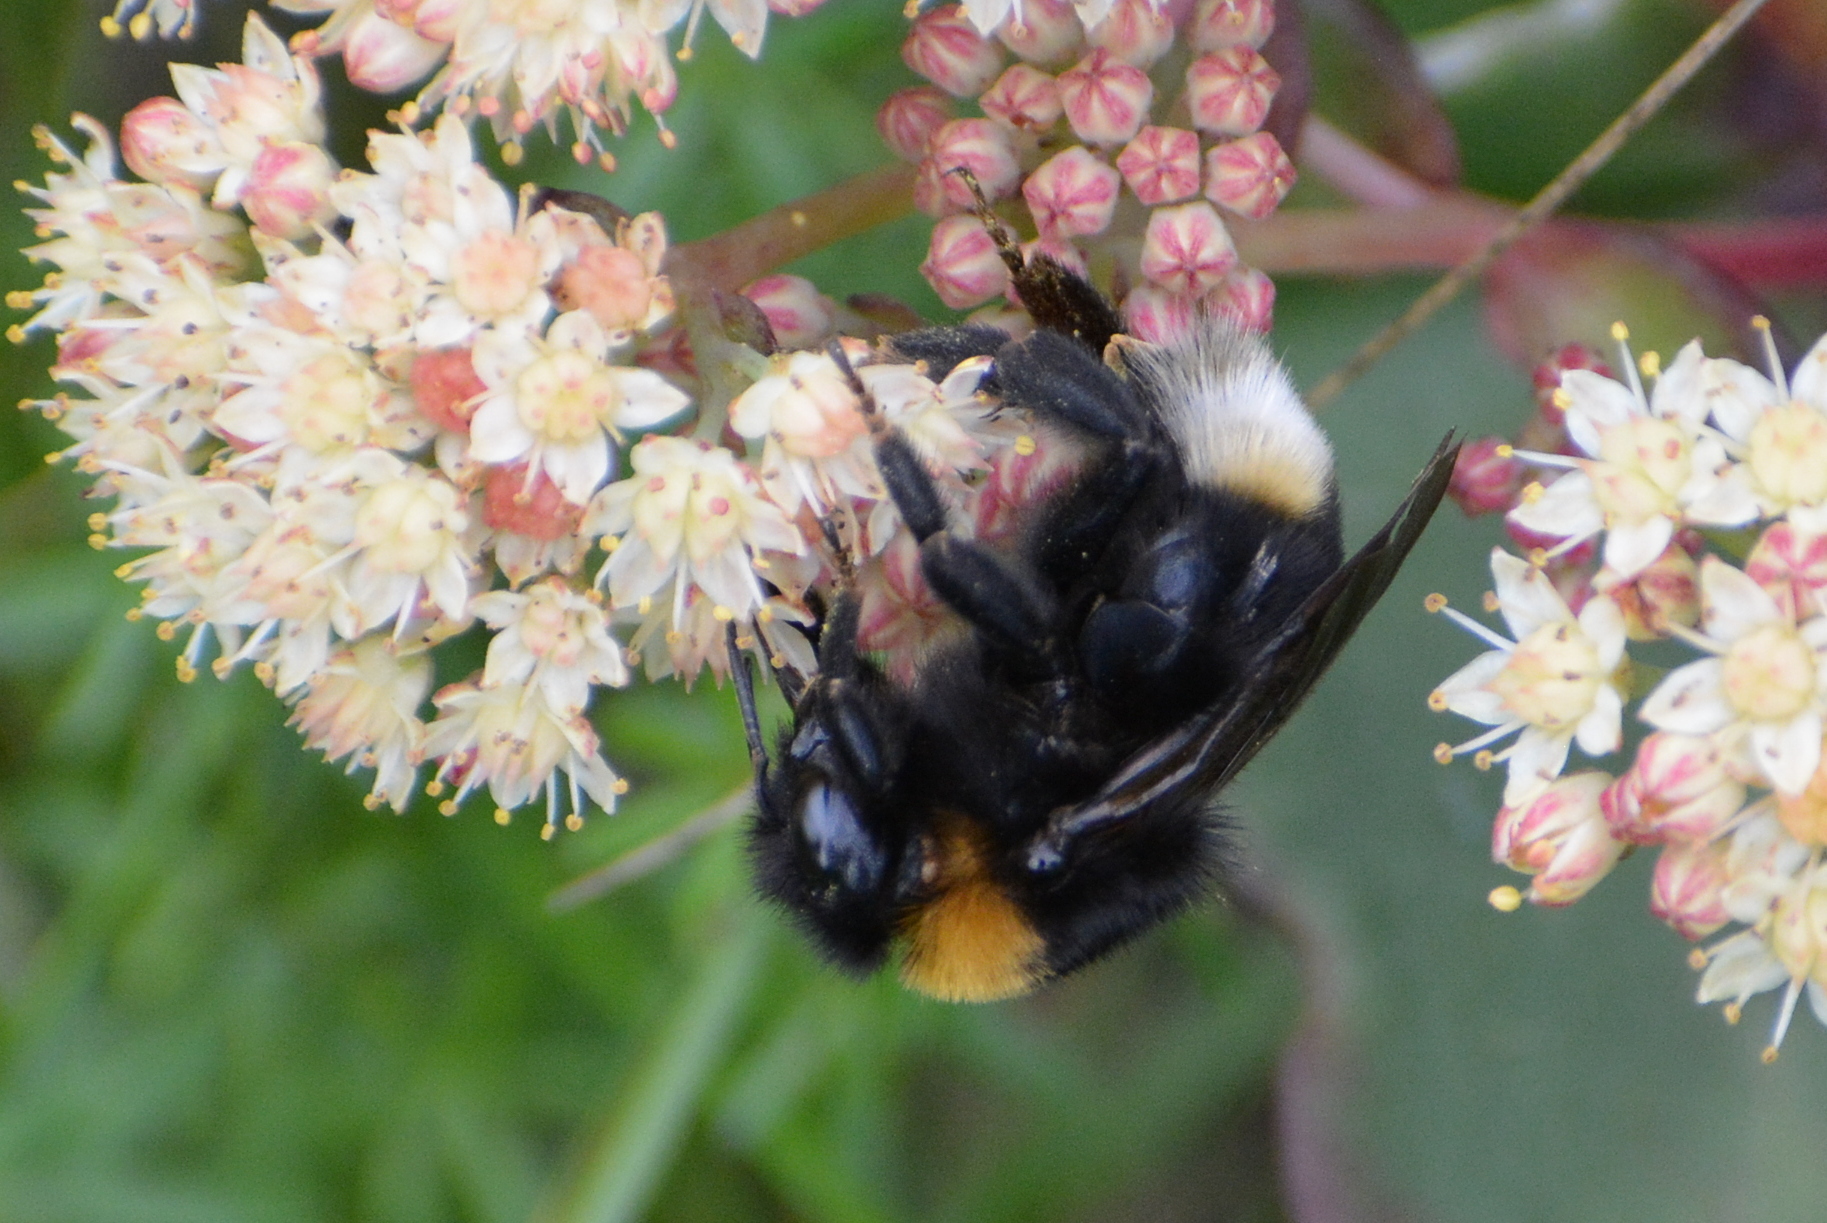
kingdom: Animalia
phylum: Arthropoda
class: Insecta
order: Hymenoptera
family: Apidae
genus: Bombus
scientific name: Bombus vestalis
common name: Vestal cuckoo bee
